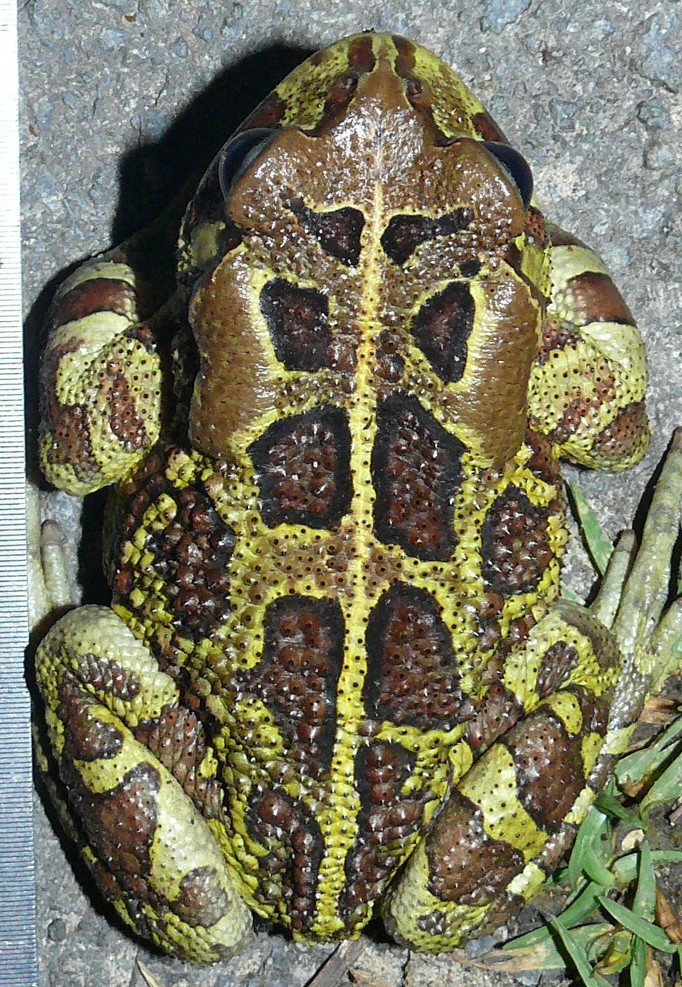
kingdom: Animalia
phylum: Chordata
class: Amphibia
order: Anura
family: Bufonidae
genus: Sclerophrys
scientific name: Sclerophrys pantherina
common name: Panther toad
